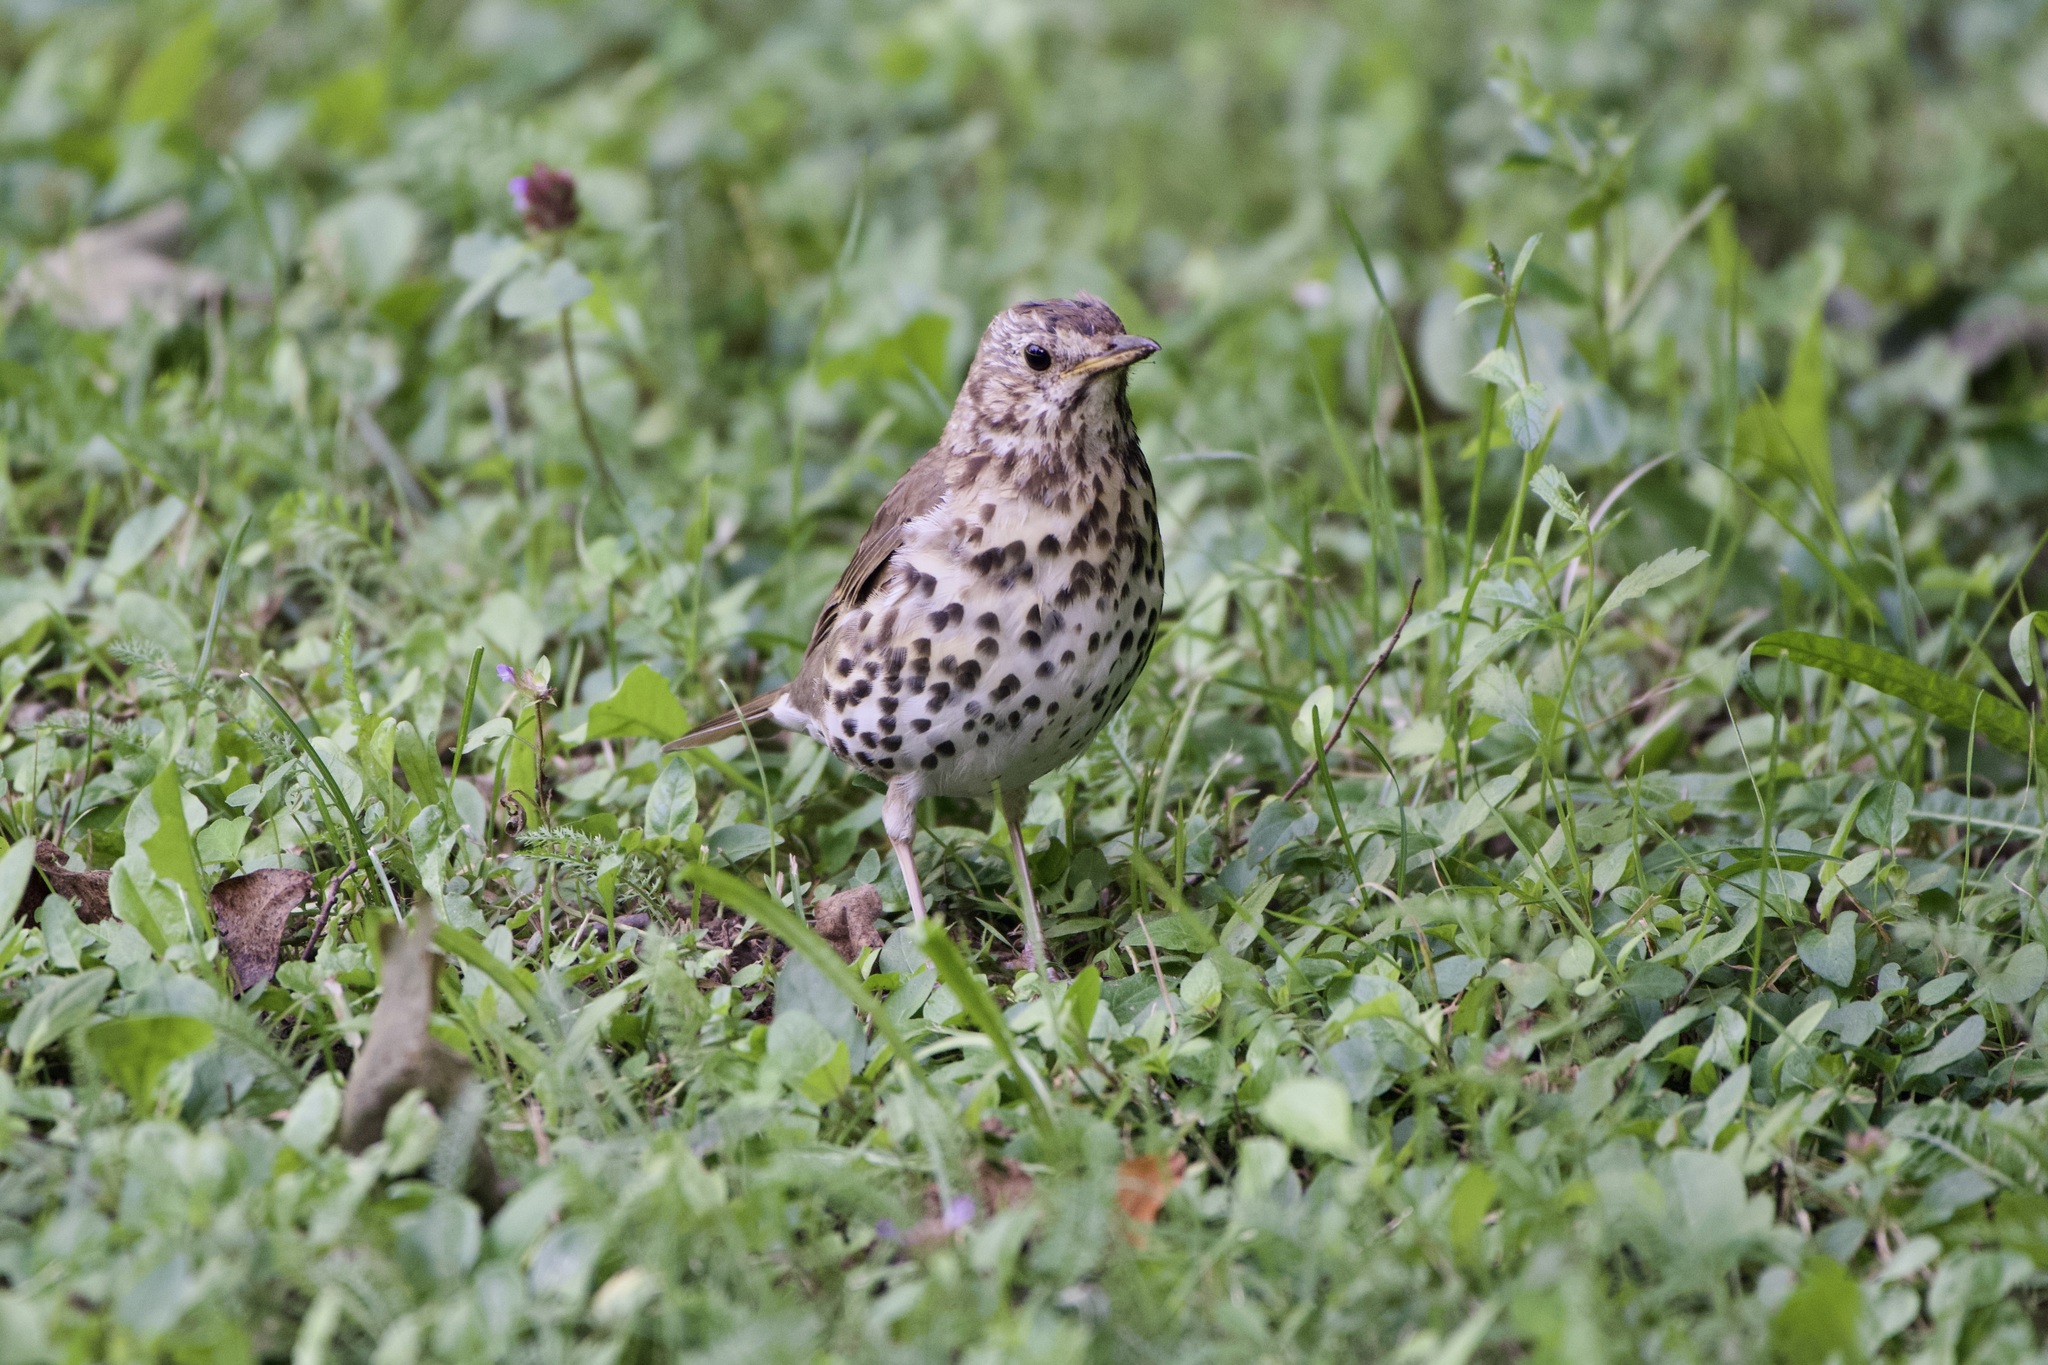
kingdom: Animalia
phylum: Chordata
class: Aves
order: Passeriformes
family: Turdidae
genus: Turdus
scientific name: Turdus philomelos
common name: Song thrush
